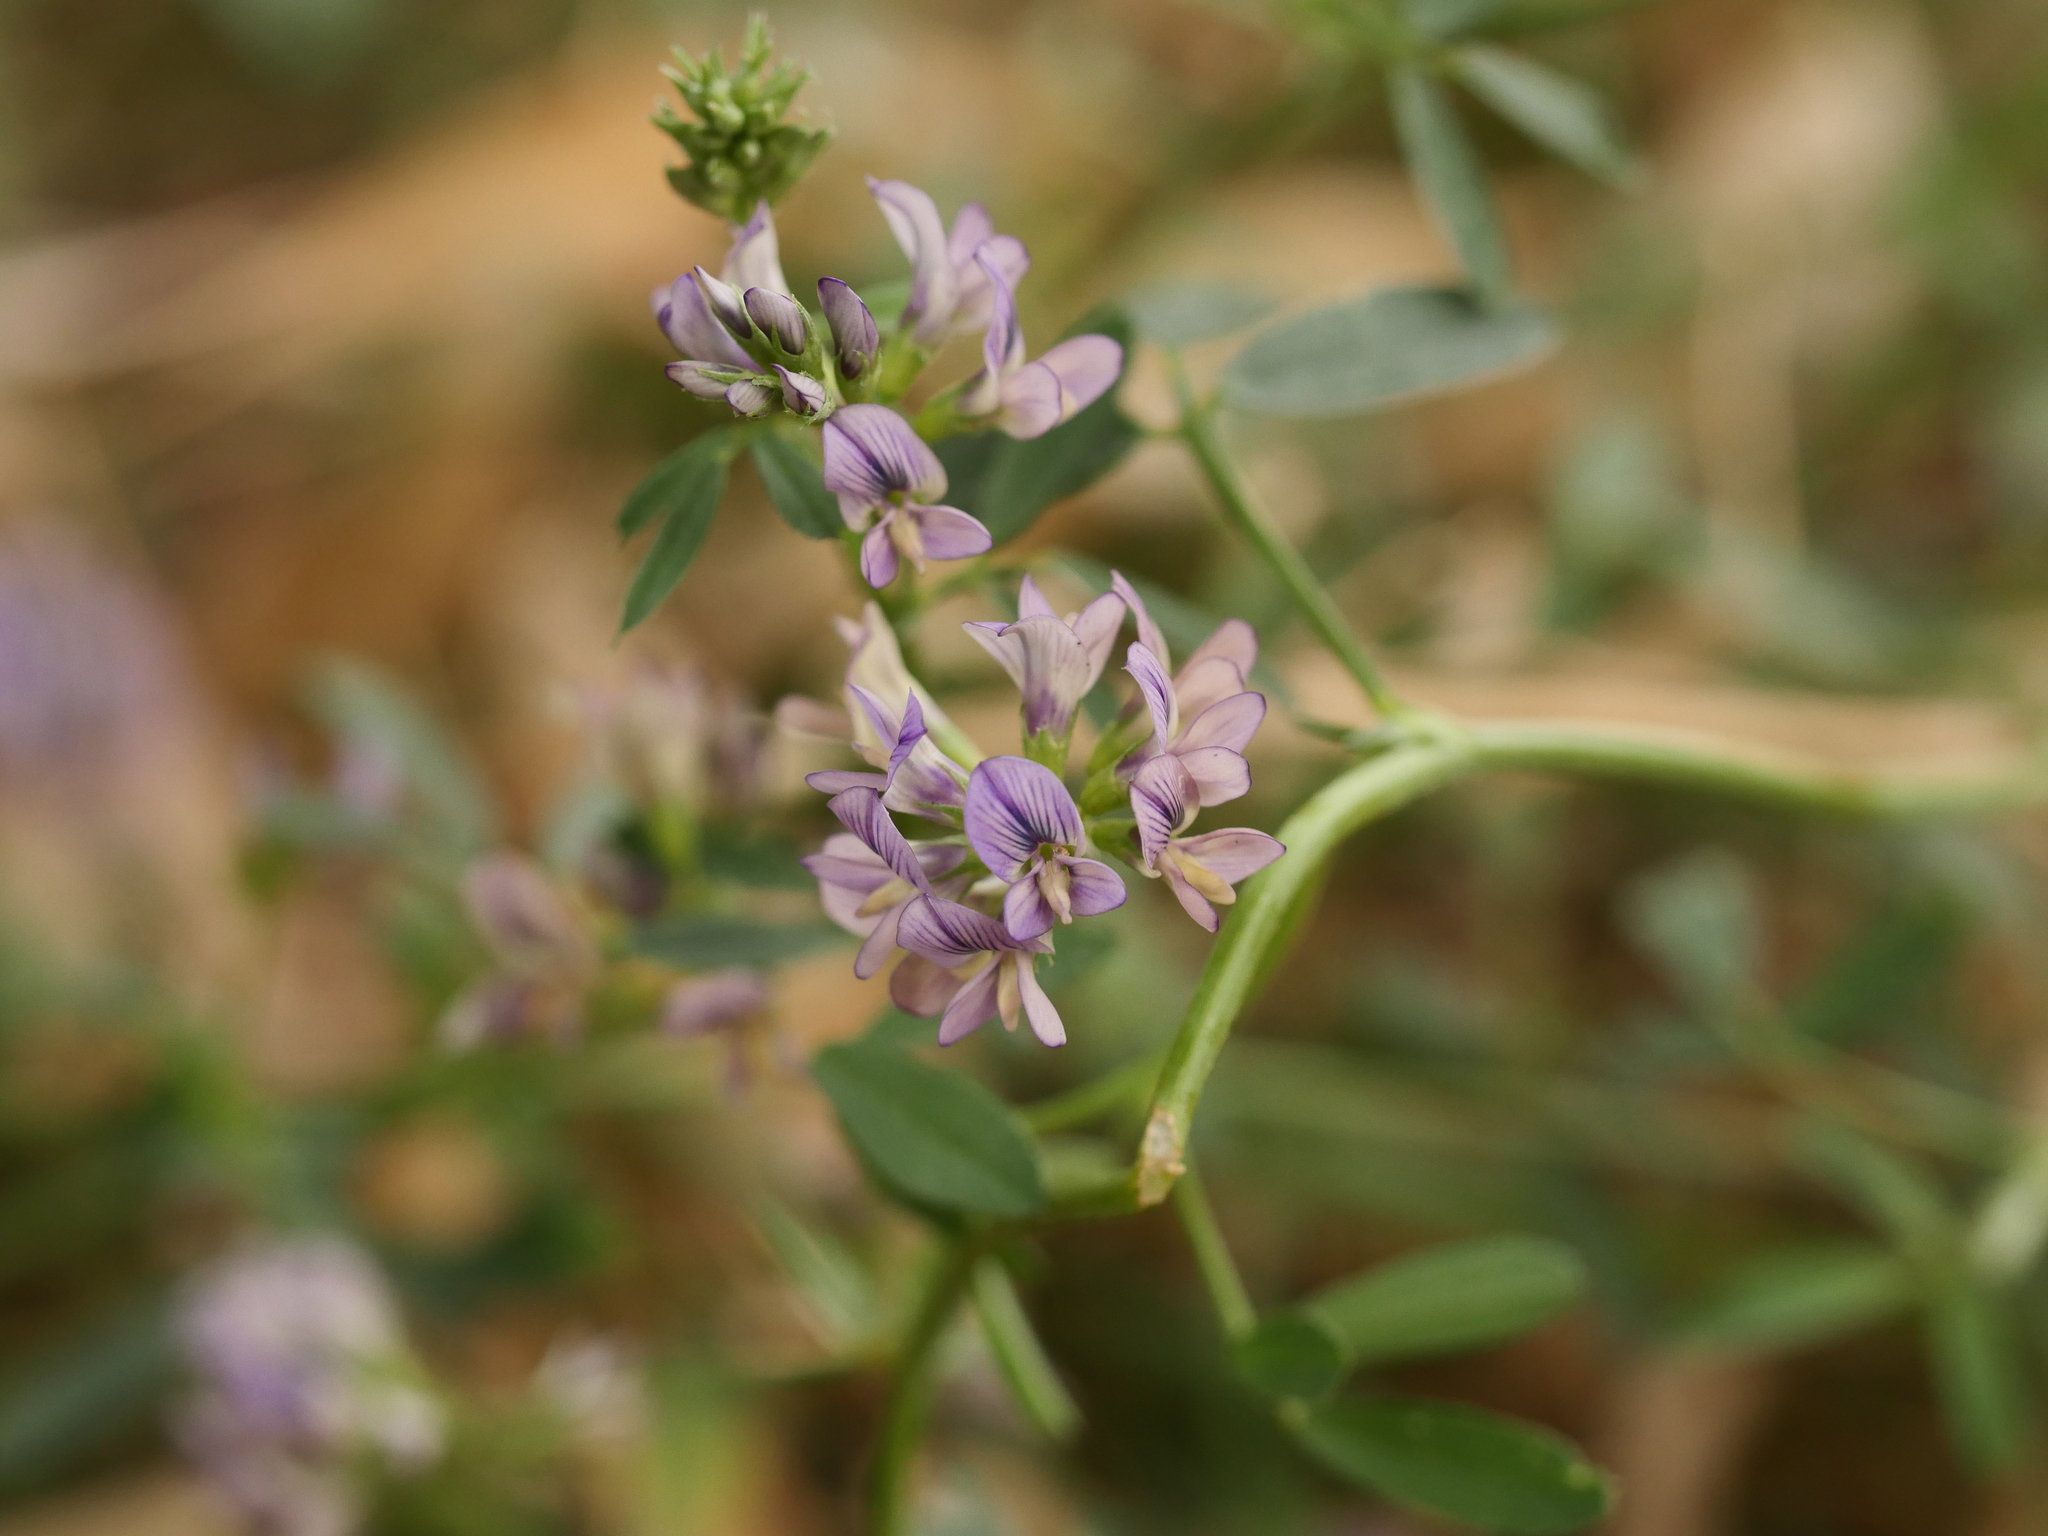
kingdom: Plantae
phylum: Tracheophyta
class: Magnoliopsida
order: Fabales
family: Fabaceae
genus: Medicago
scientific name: Medicago varia
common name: Sand lucerne
